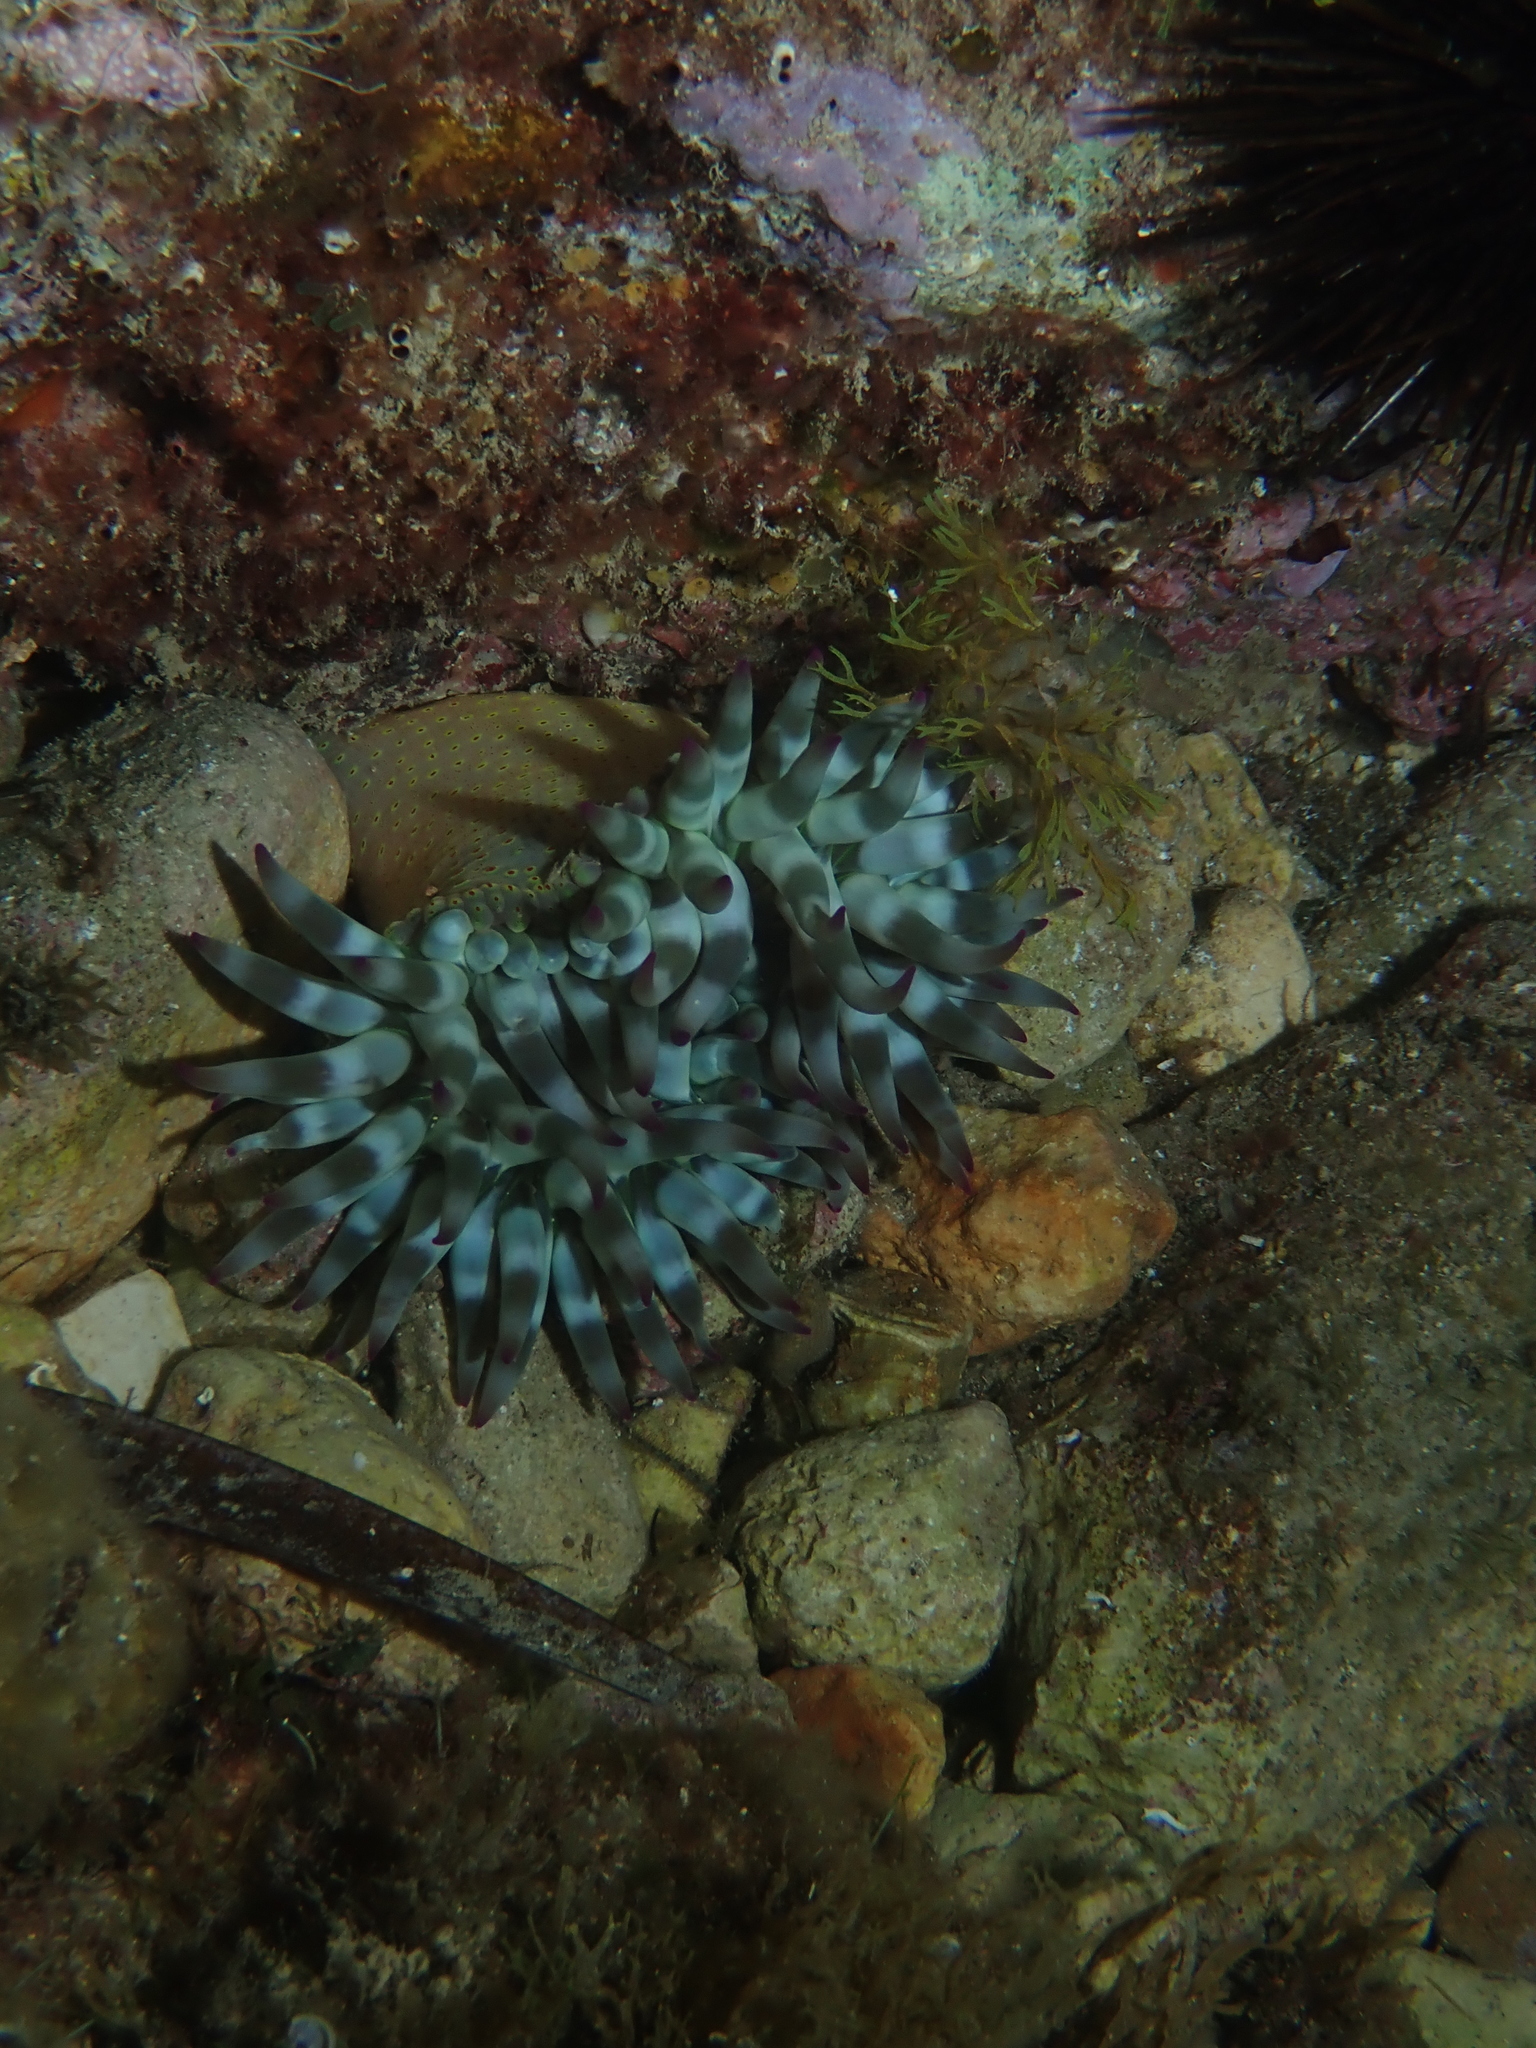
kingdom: Animalia
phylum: Cnidaria
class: Anthozoa
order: Actiniaria
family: Actiniidae
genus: Cribrinopsis
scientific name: Cribrinopsis crassa
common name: Fat anemone
